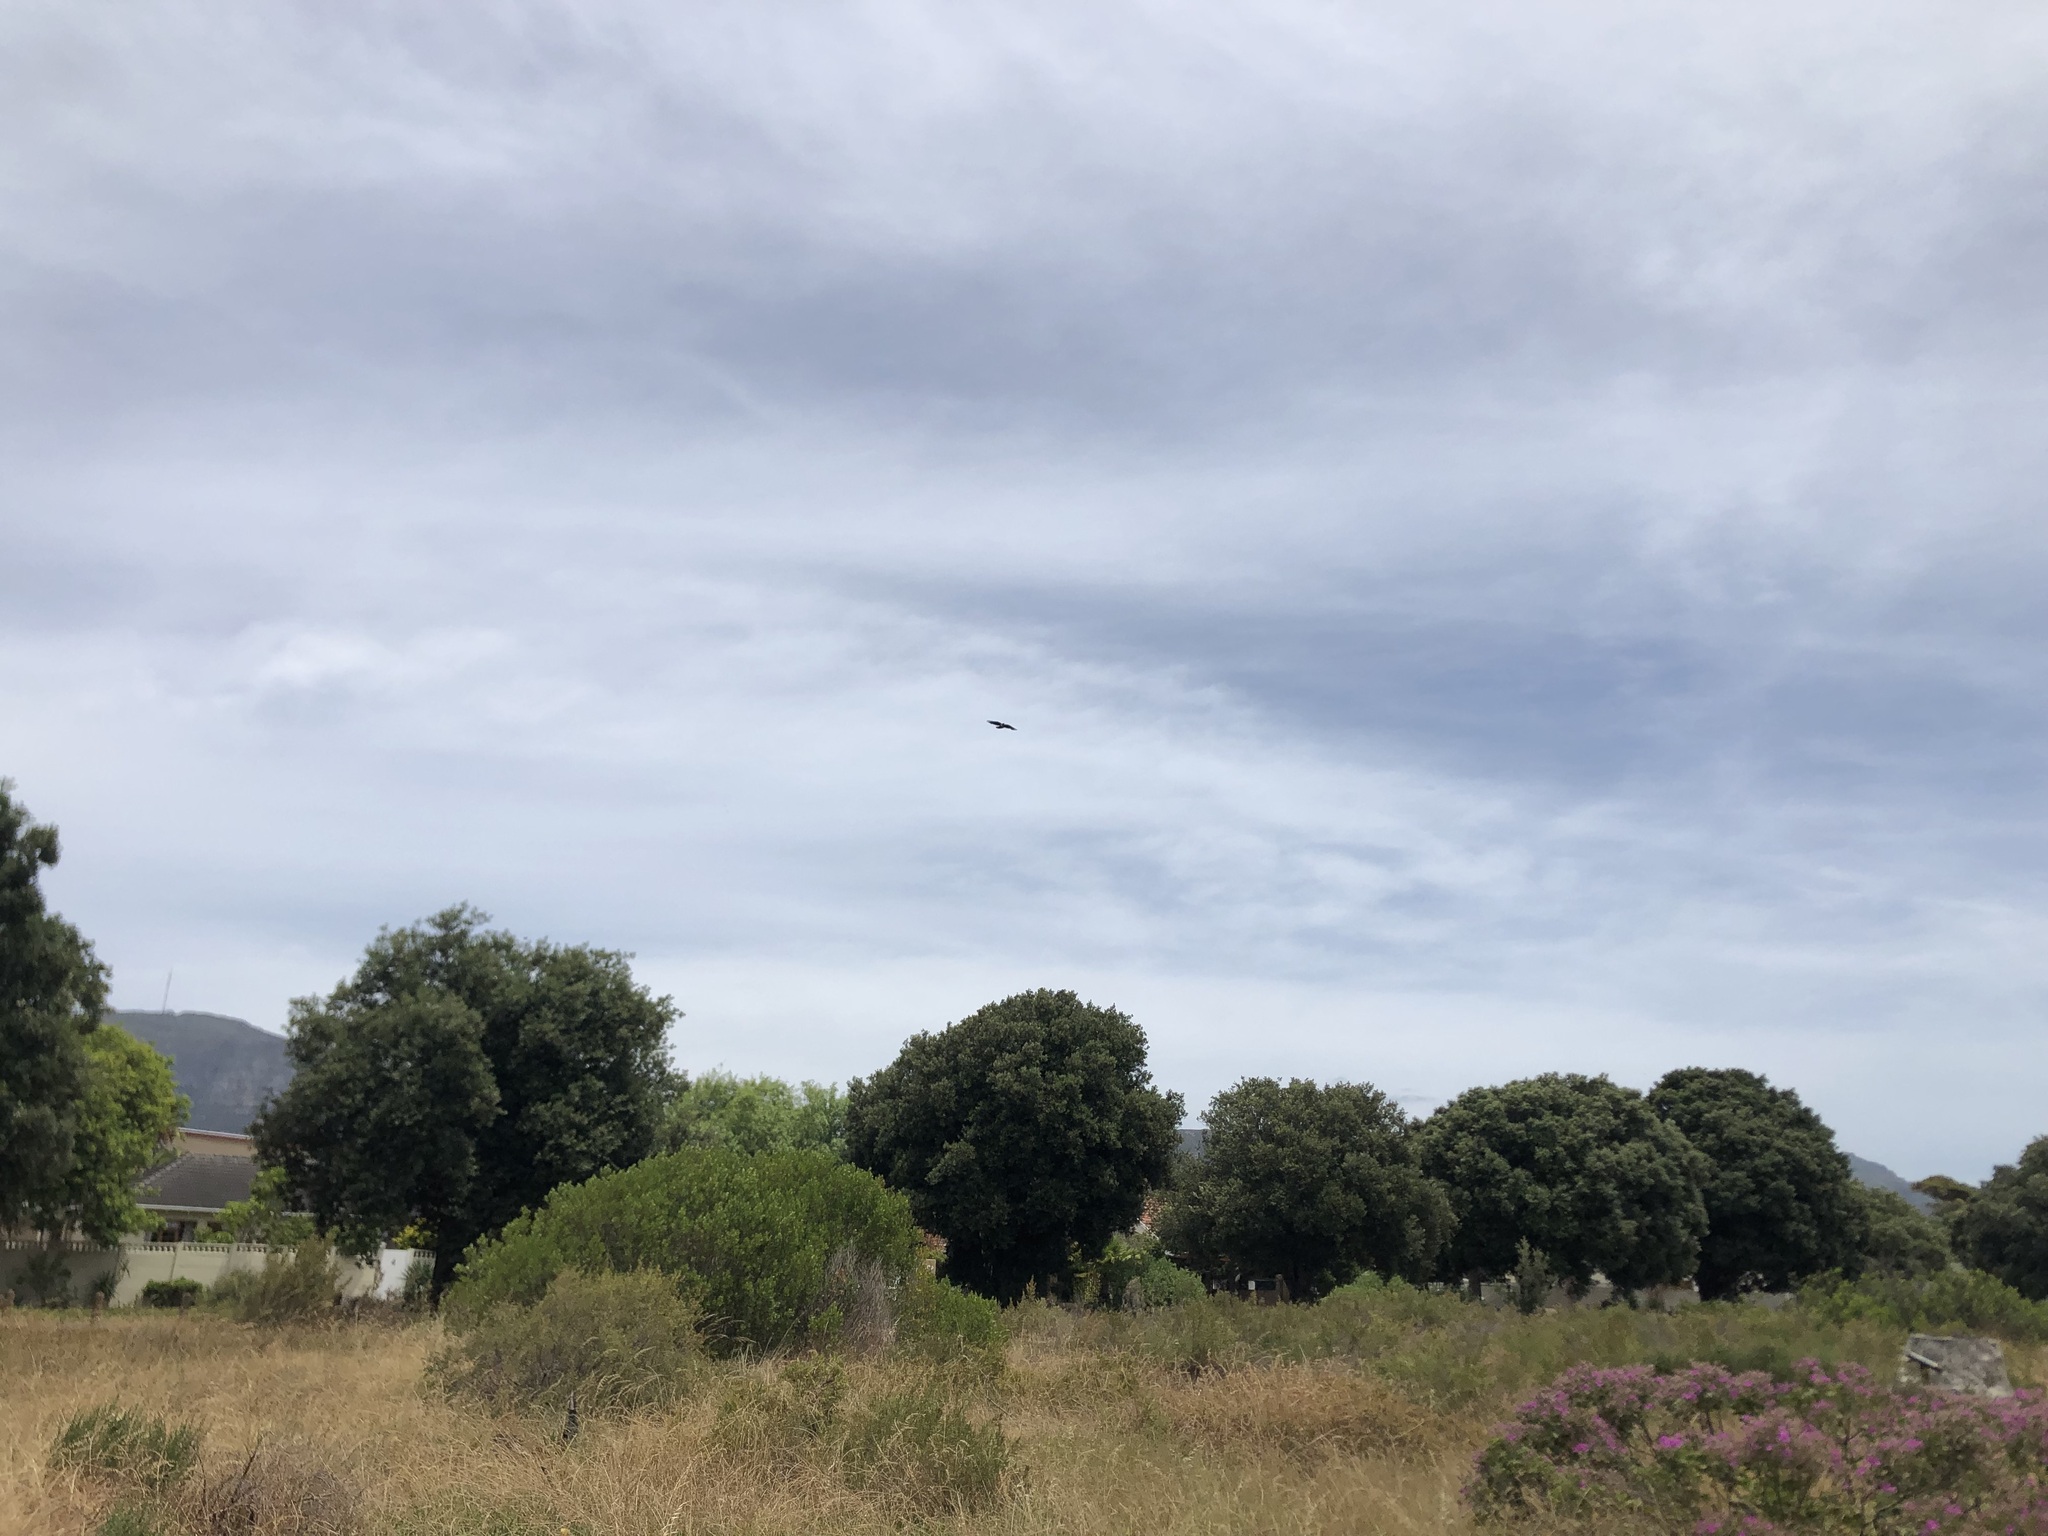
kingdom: Animalia
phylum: Chordata
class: Aves
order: Passeriformes
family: Corvidae
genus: Corvus
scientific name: Corvus albus
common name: Pied crow
